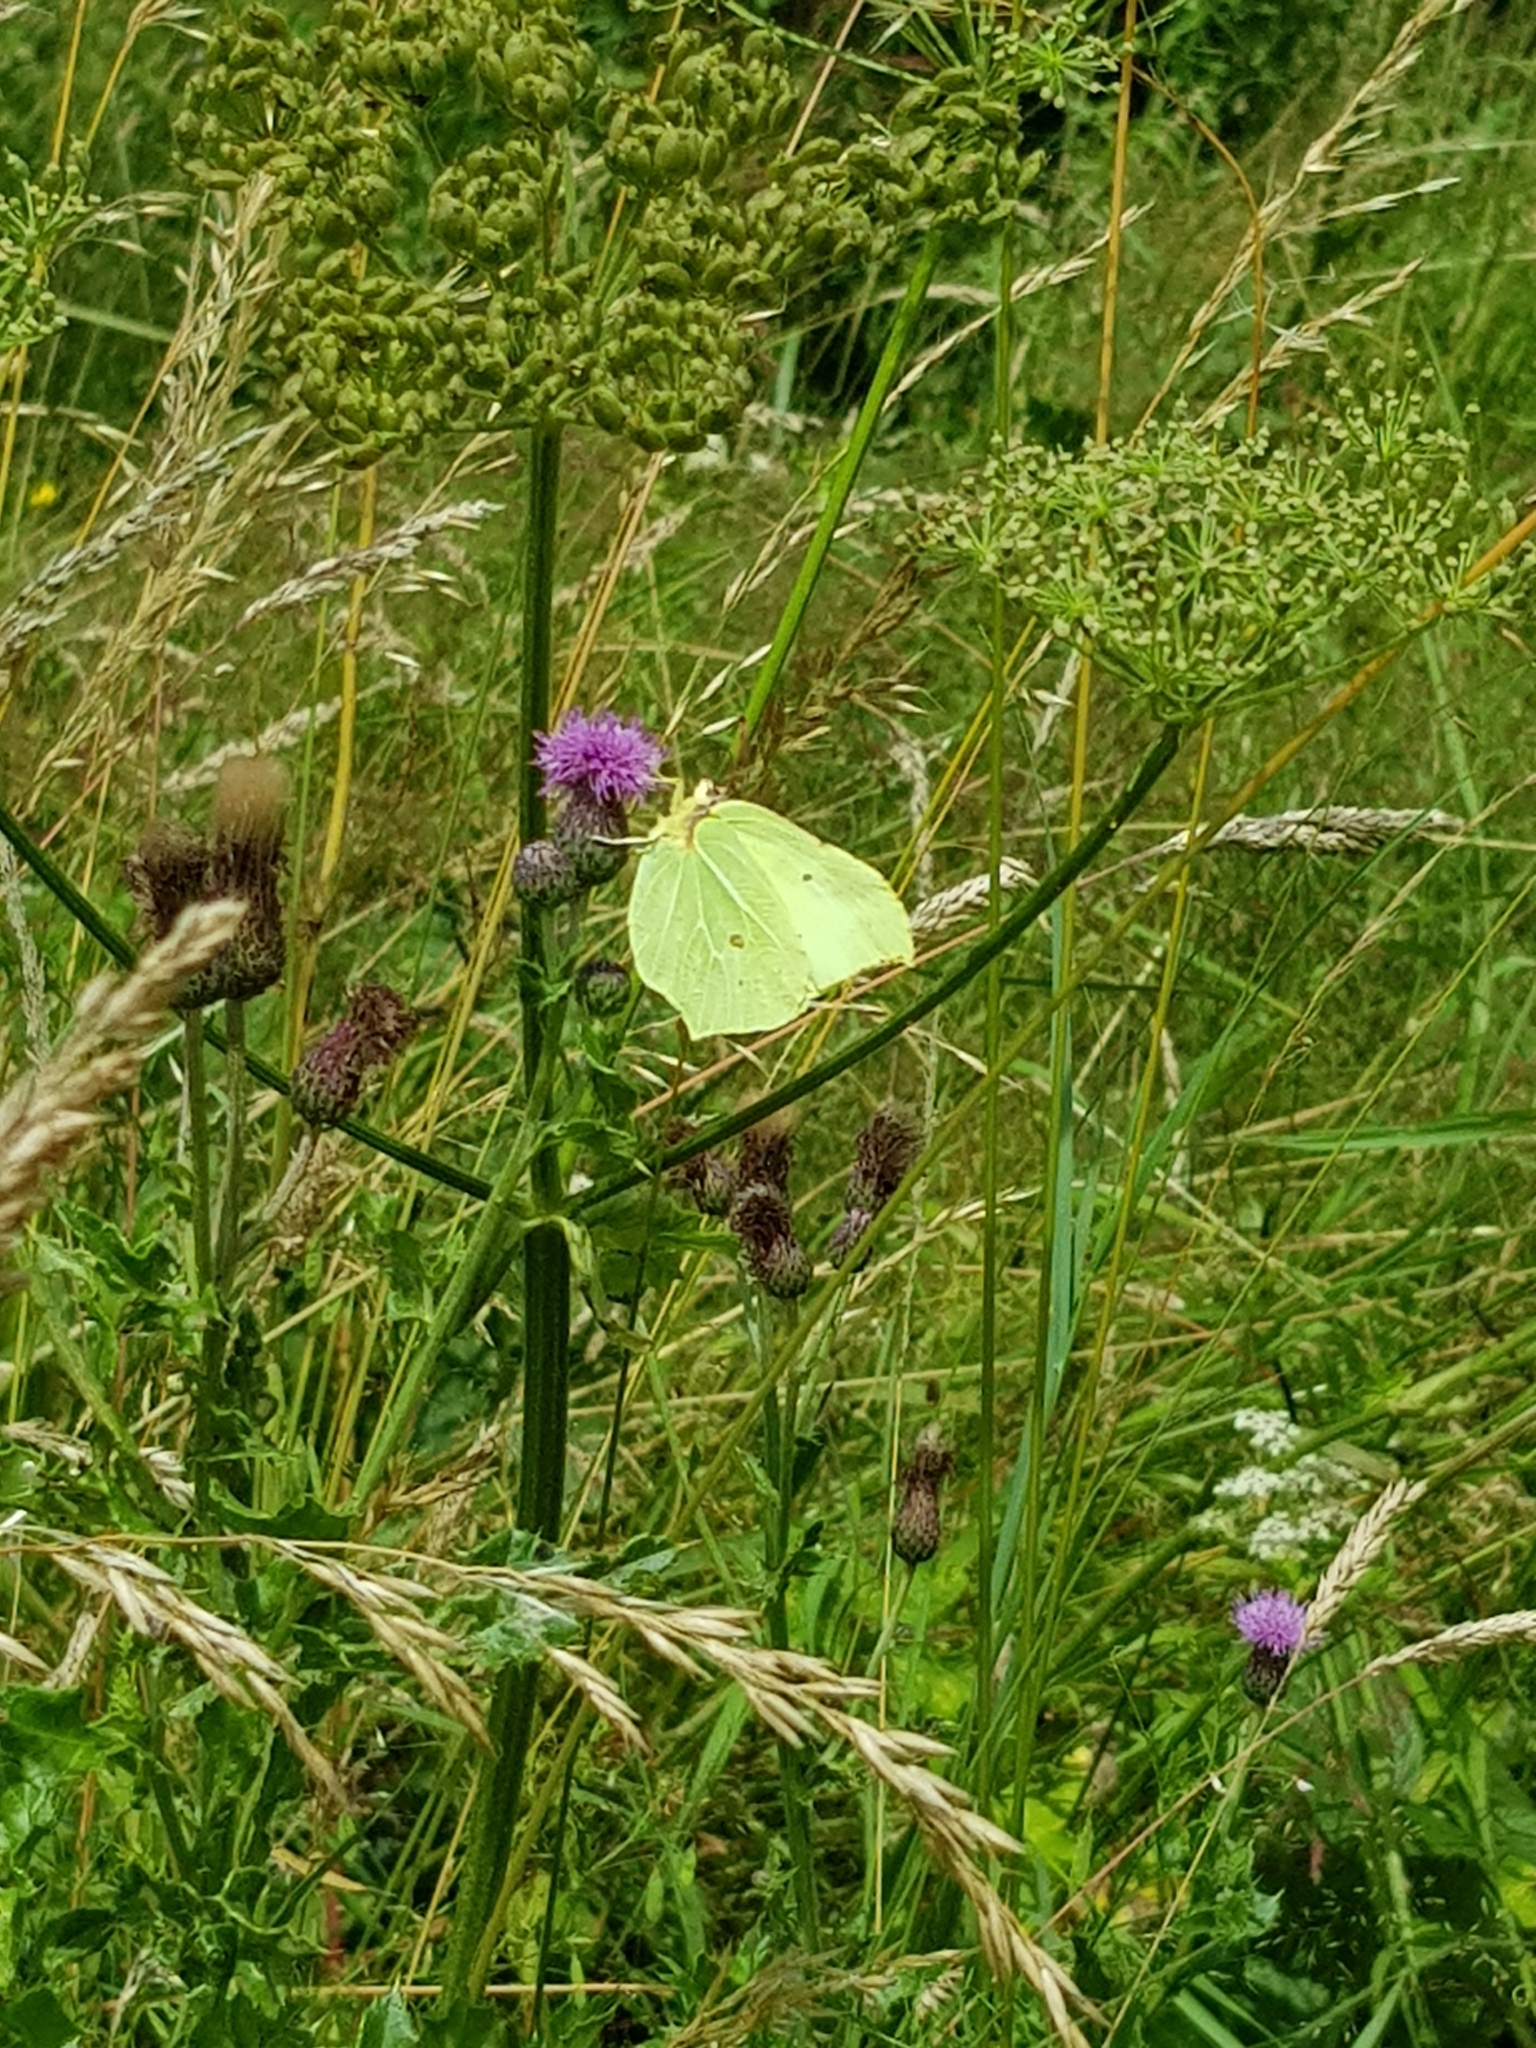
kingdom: Animalia
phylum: Arthropoda
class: Insecta
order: Lepidoptera
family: Pieridae
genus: Gonepteryx
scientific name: Gonepteryx rhamni
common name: Brimstone
